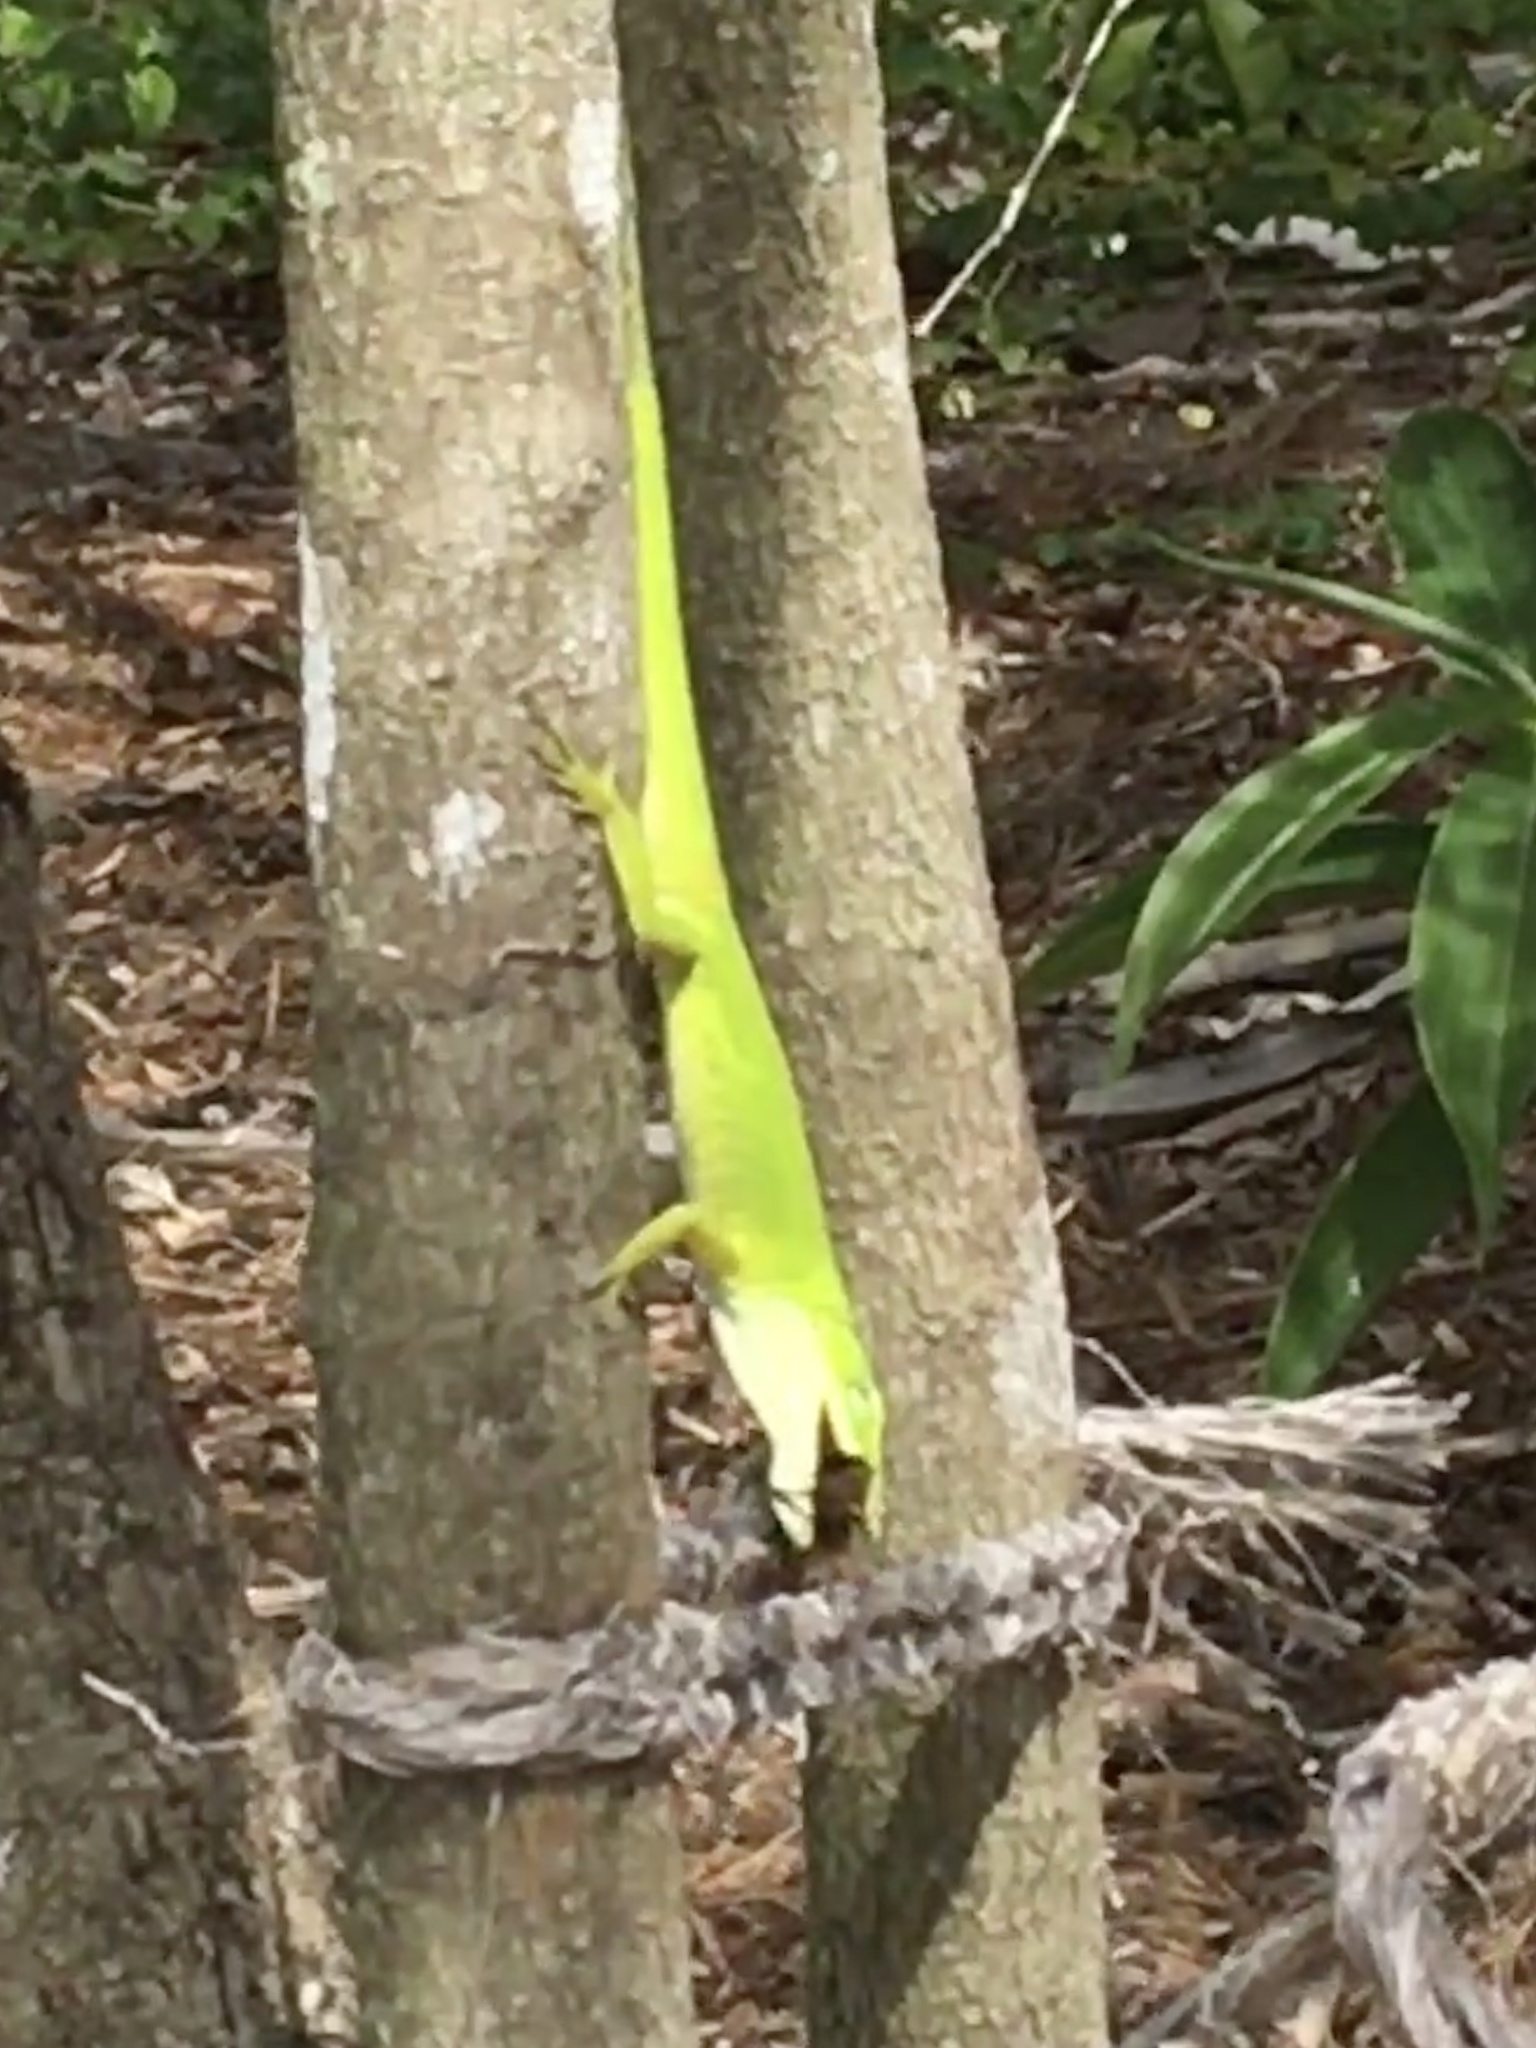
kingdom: Animalia
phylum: Chordata
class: Squamata
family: Dactyloidae
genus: Anolis
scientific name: Anolis carolinensis
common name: Green anole
